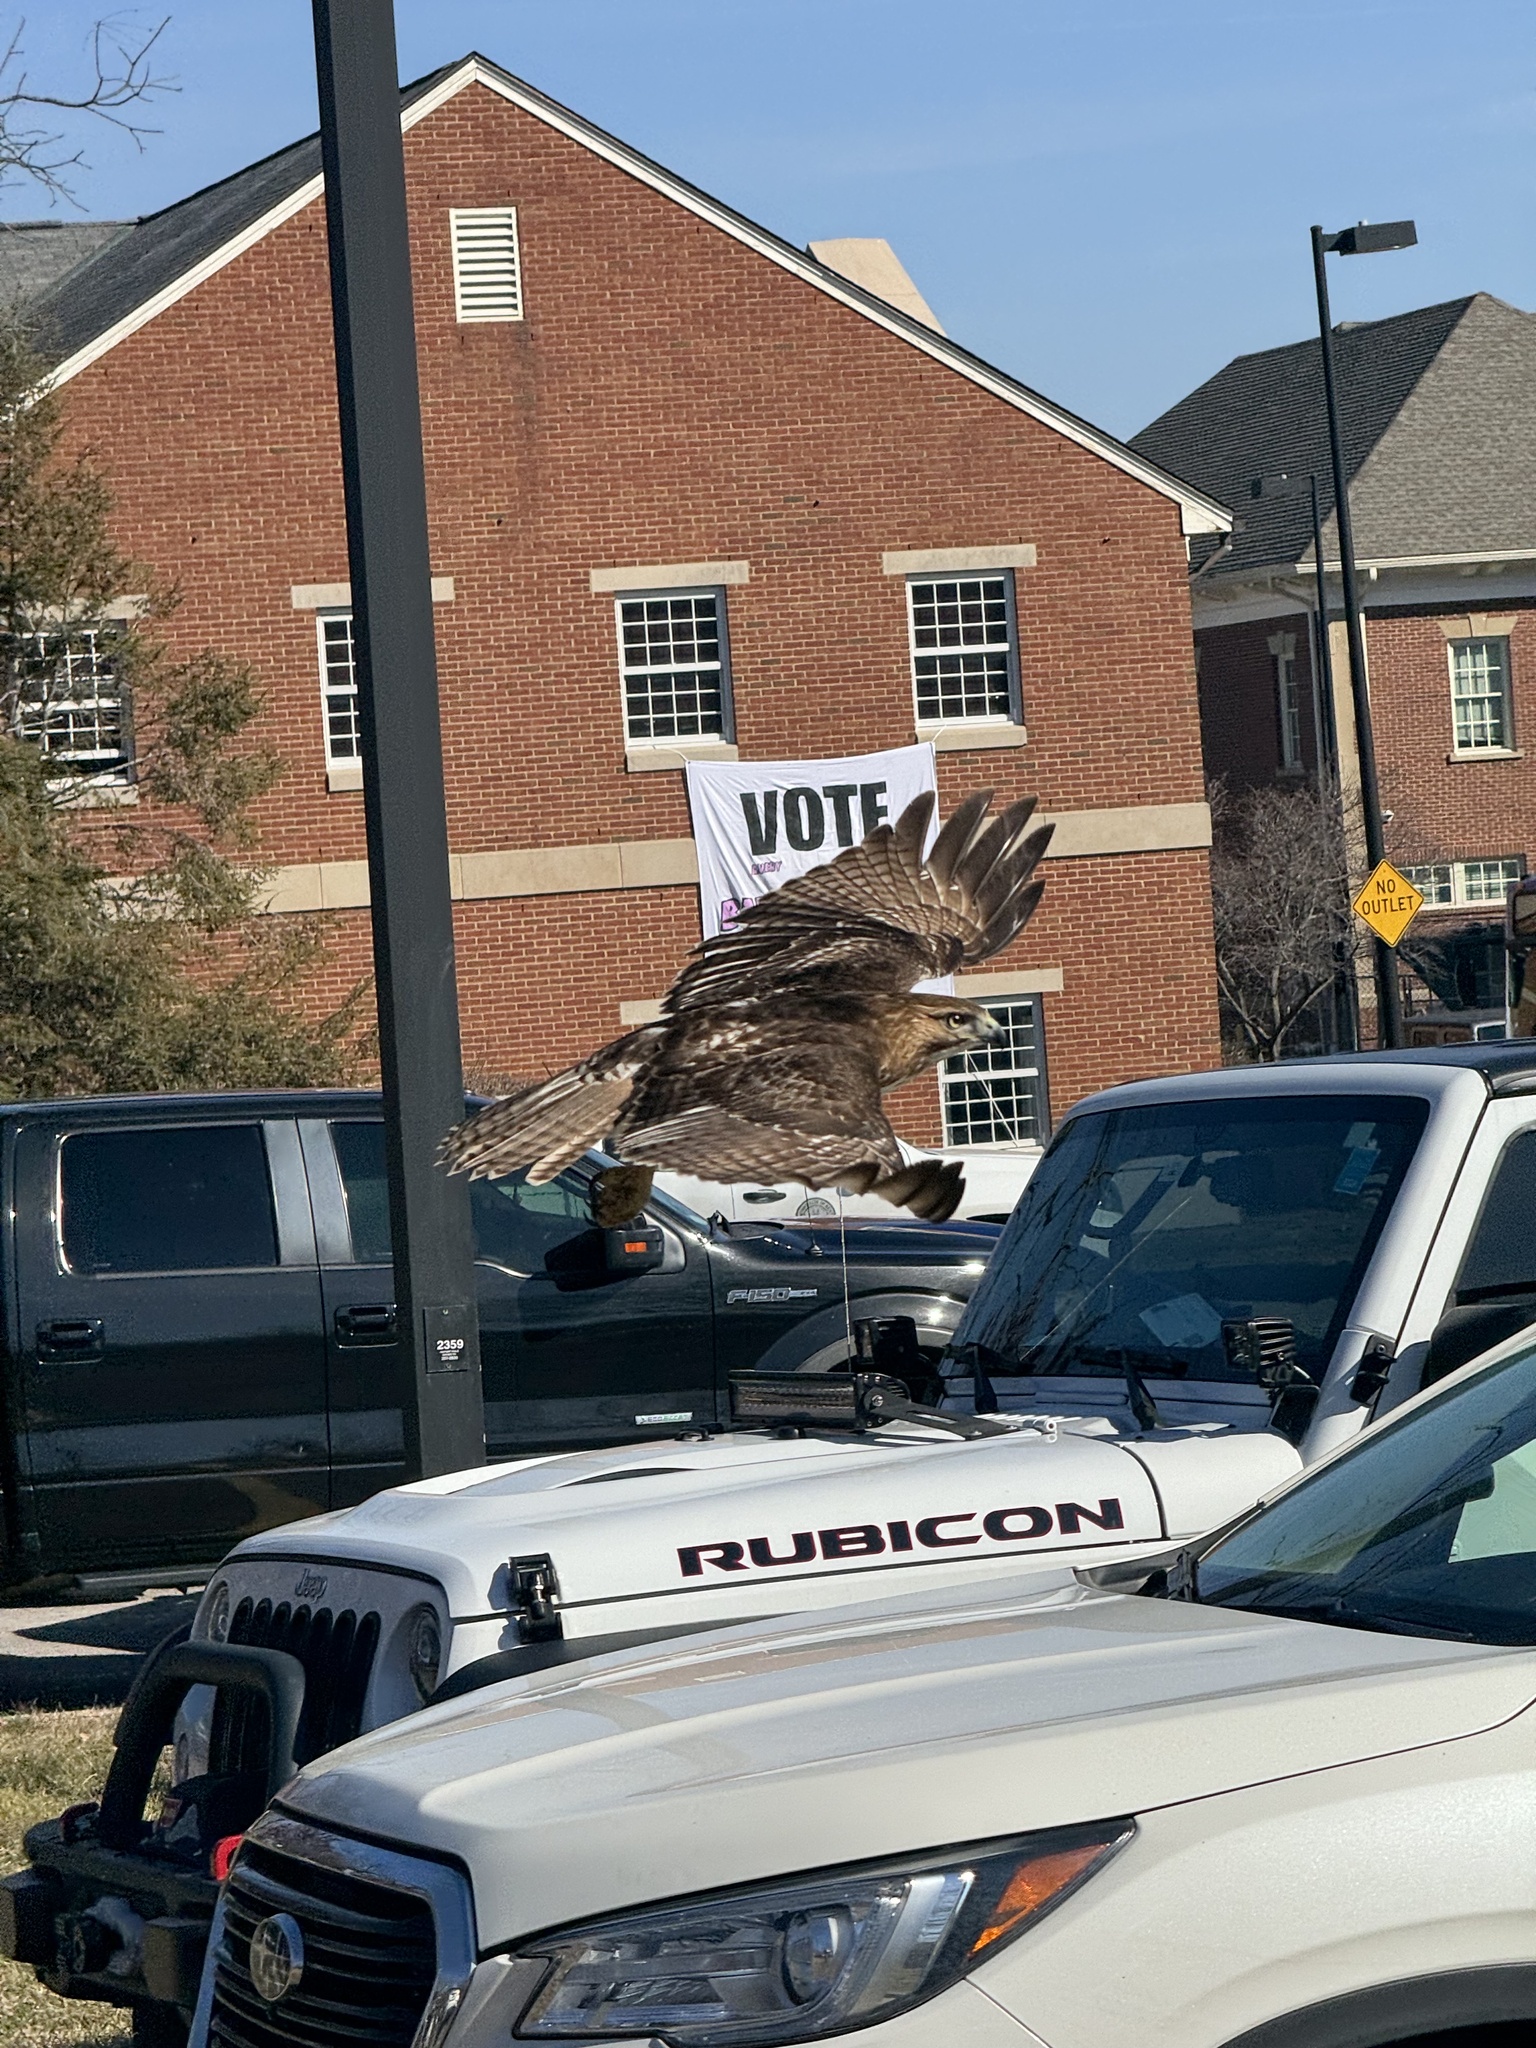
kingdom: Animalia
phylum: Chordata
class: Aves
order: Accipitriformes
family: Accipitridae
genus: Buteo
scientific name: Buteo jamaicensis
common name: Red-tailed hawk
